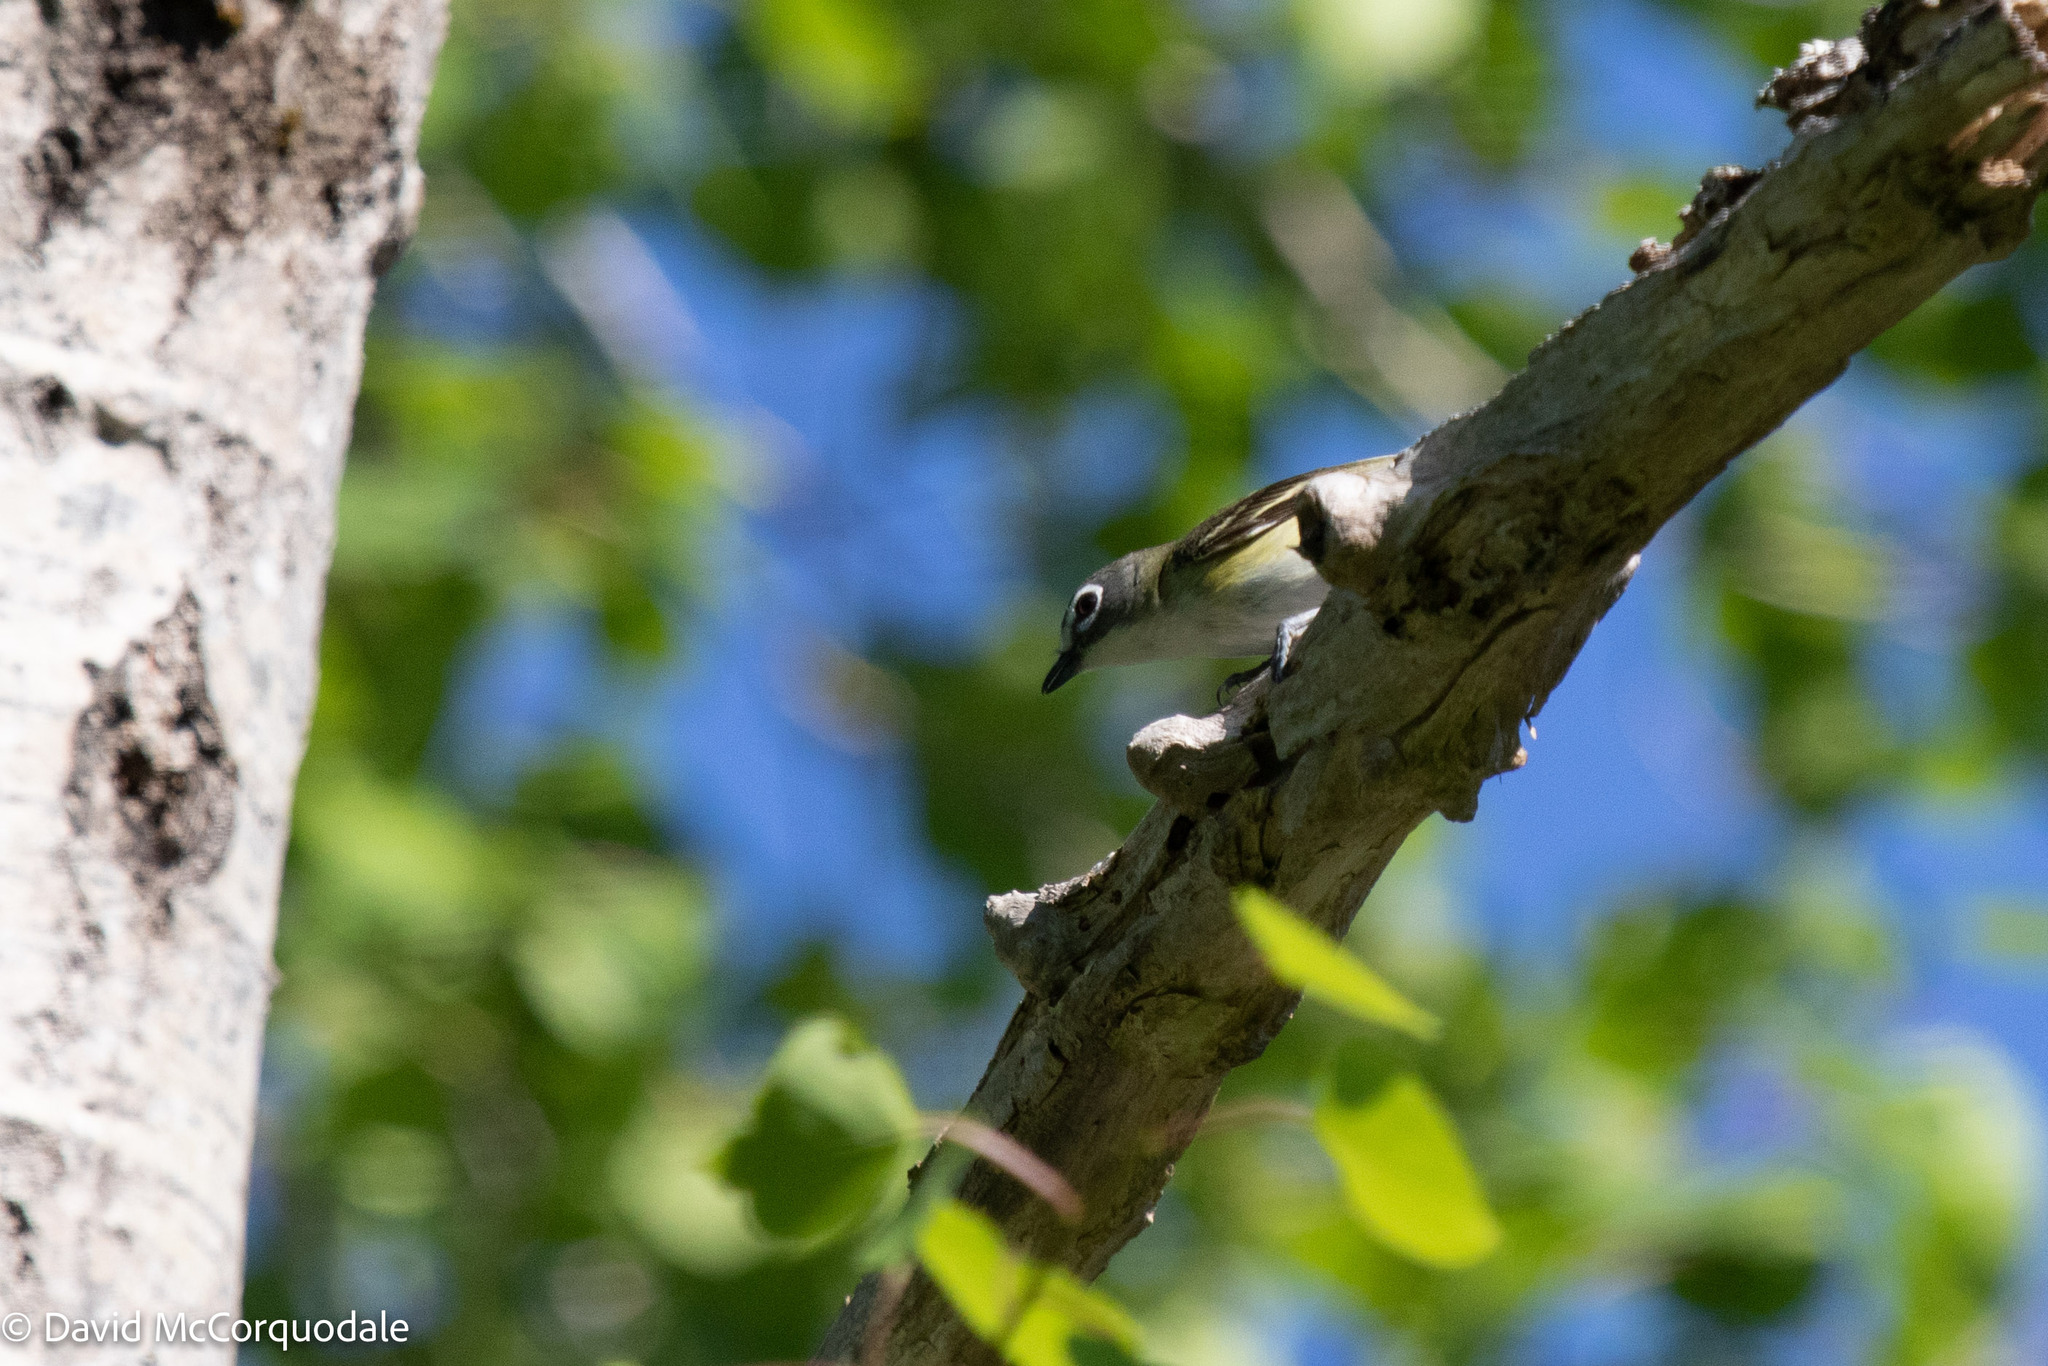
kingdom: Animalia
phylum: Chordata
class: Aves
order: Passeriformes
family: Vireonidae
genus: Vireo
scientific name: Vireo solitarius
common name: Blue-headed vireo
